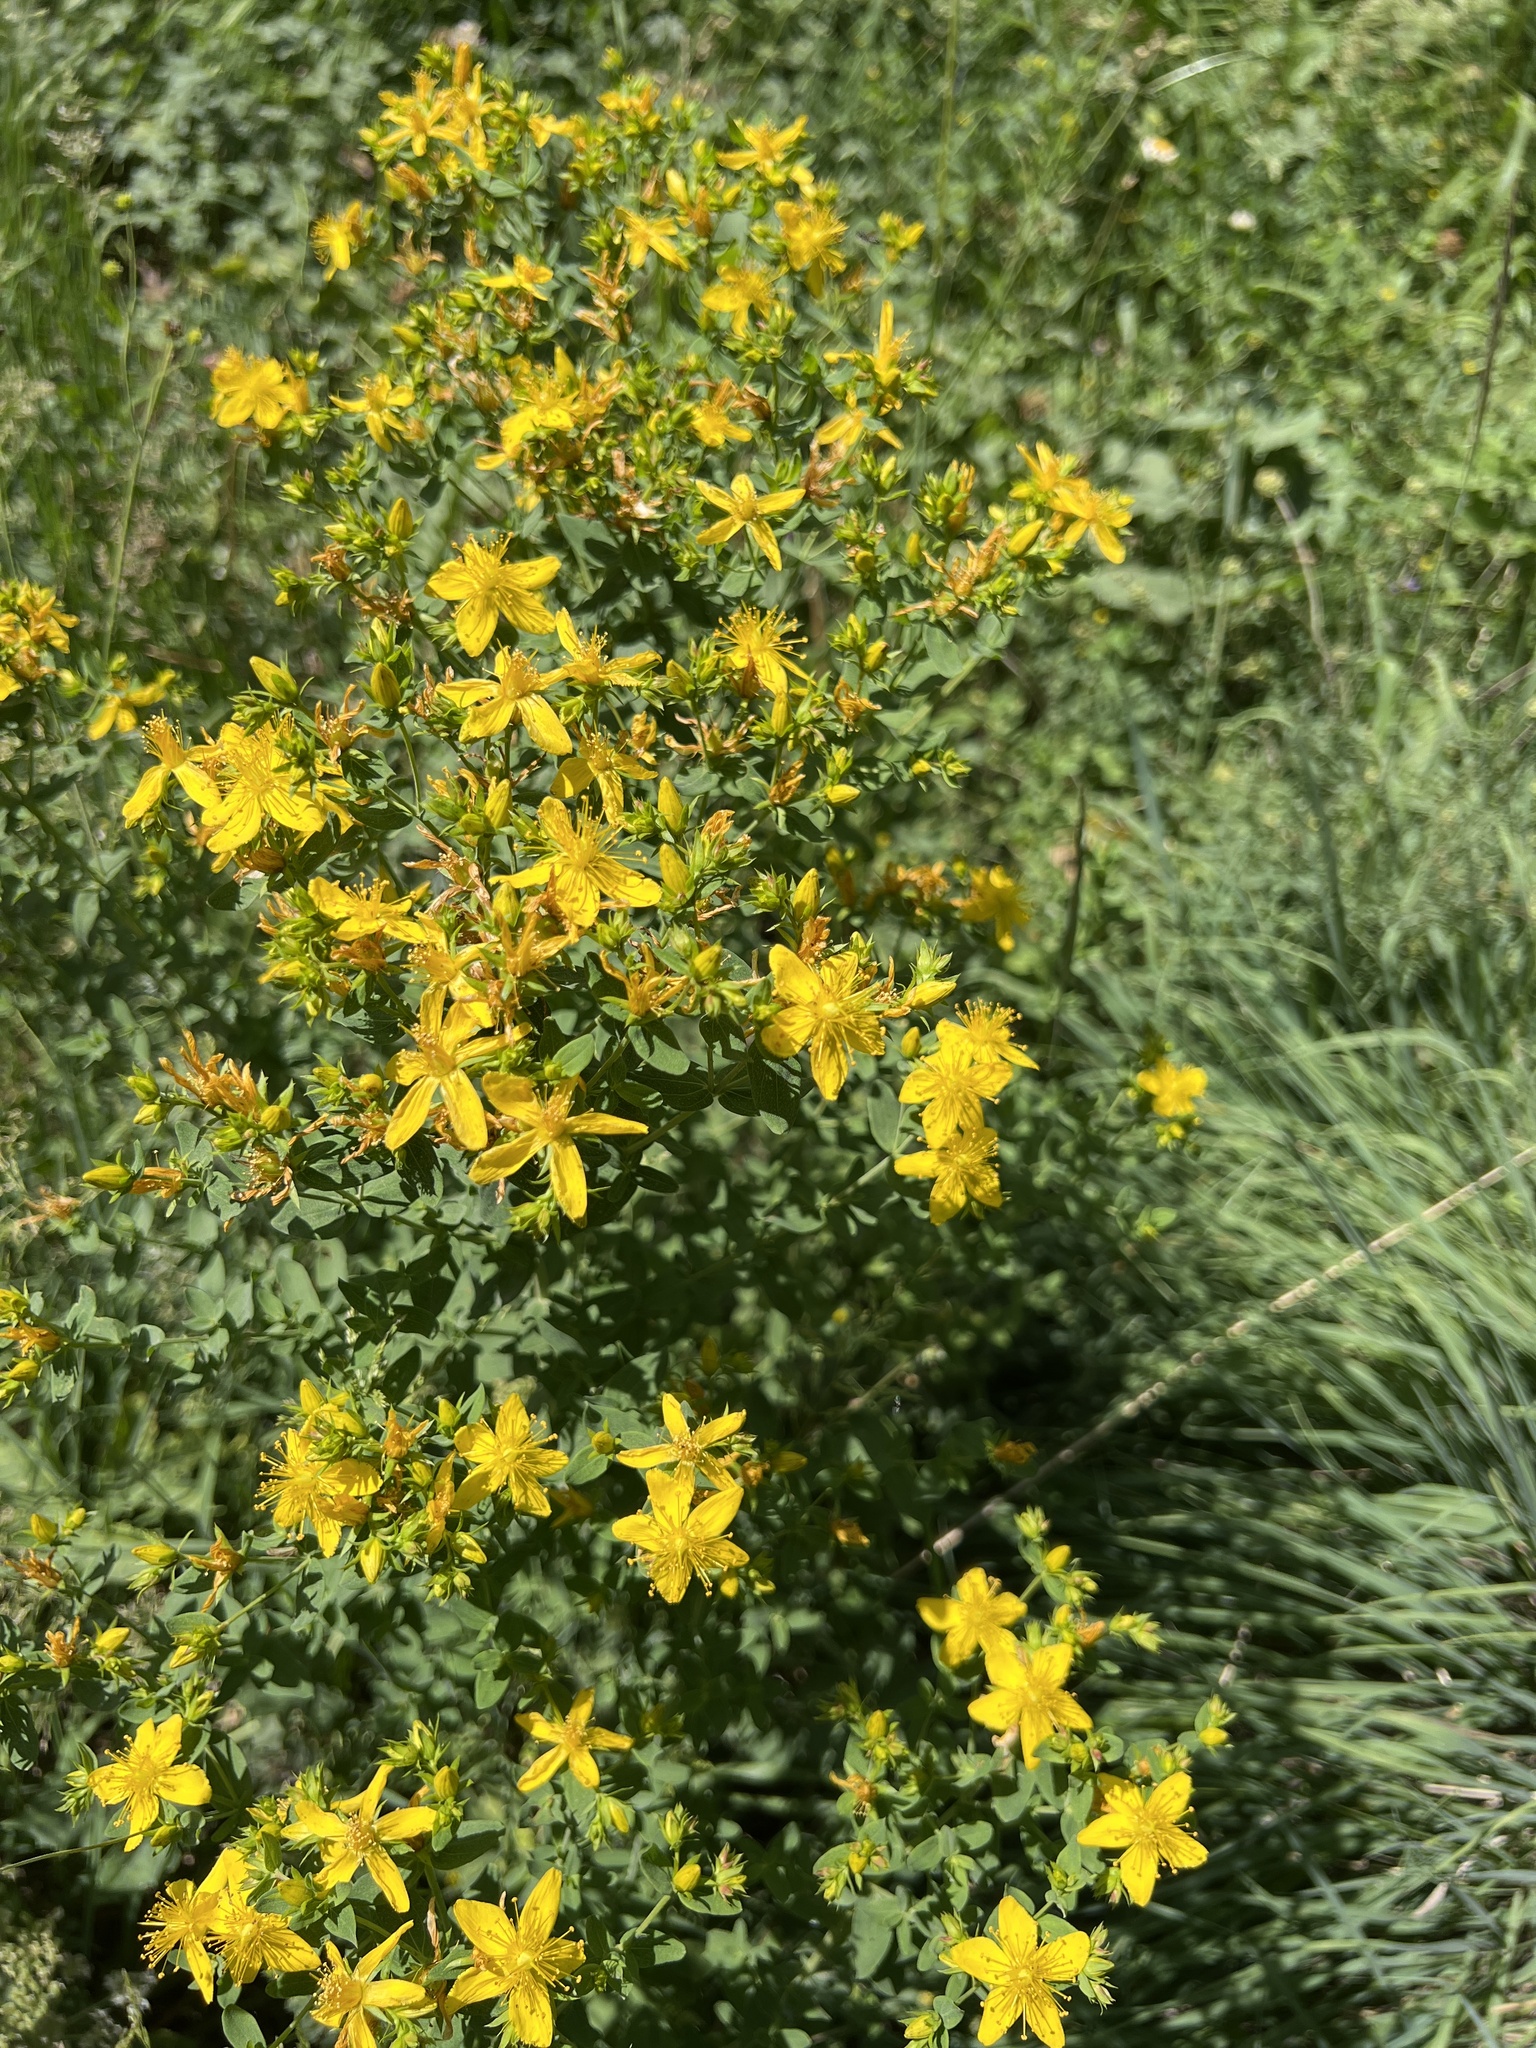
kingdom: Plantae
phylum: Tracheophyta
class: Magnoliopsida
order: Malpighiales
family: Hypericaceae
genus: Hypericum
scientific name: Hypericum perforatum
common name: Common st. johnswort
